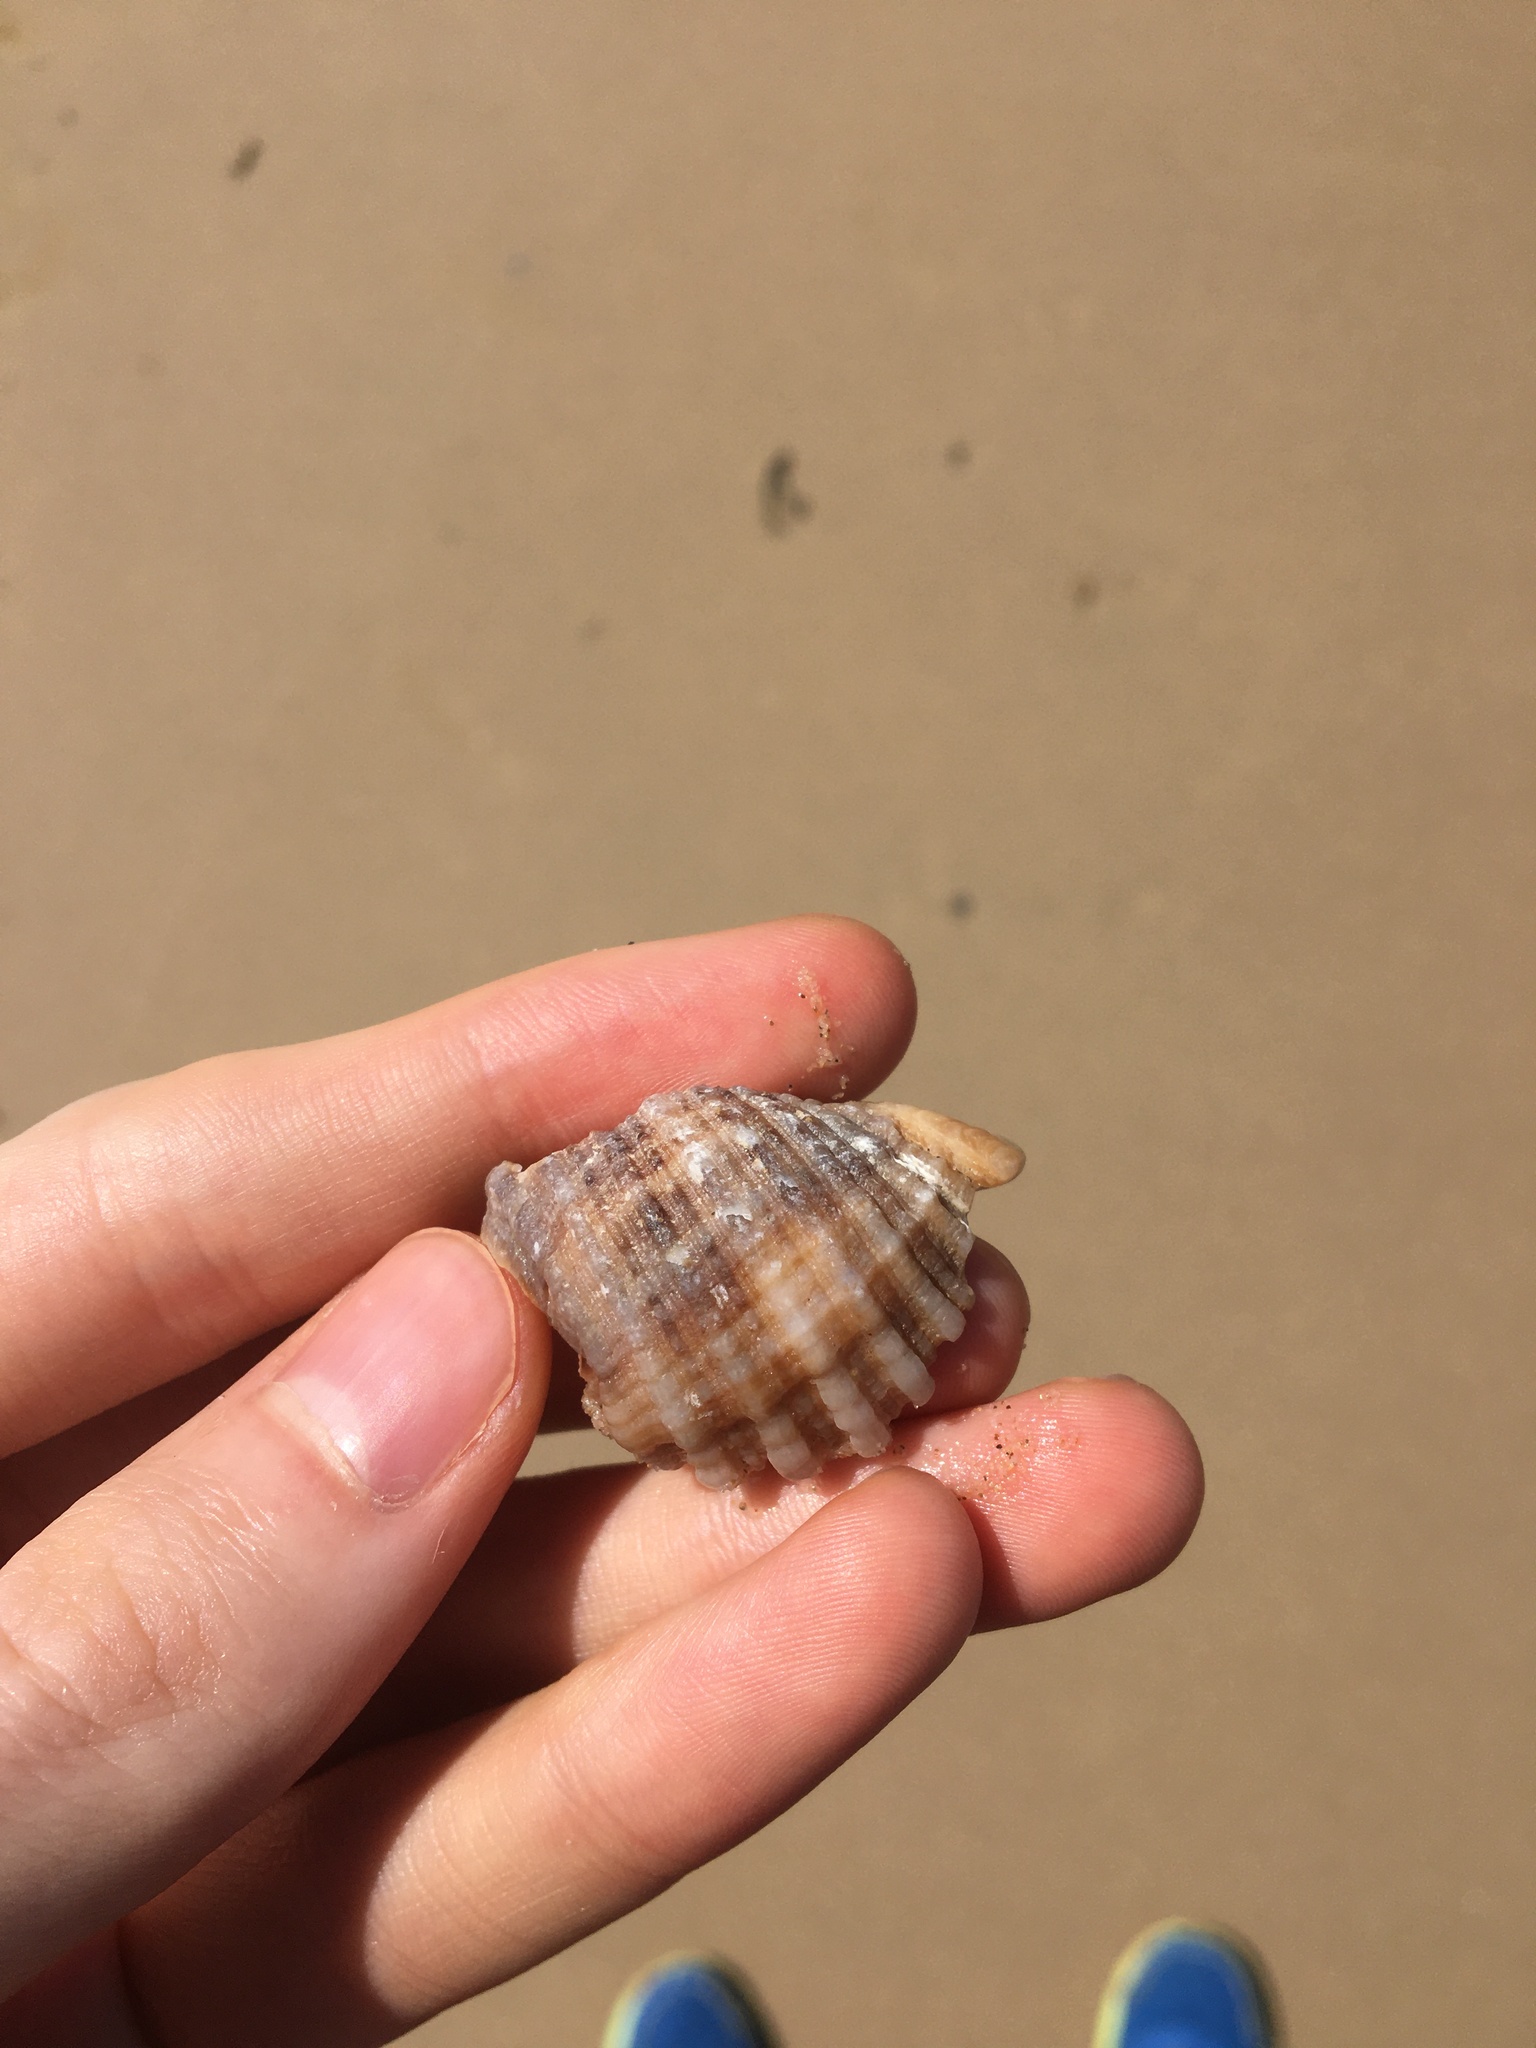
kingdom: Animalia
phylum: Mollusca
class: Gastropoda
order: Neogastropoda
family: Muricidae
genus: Dicathais
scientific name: Dicathais orbita
